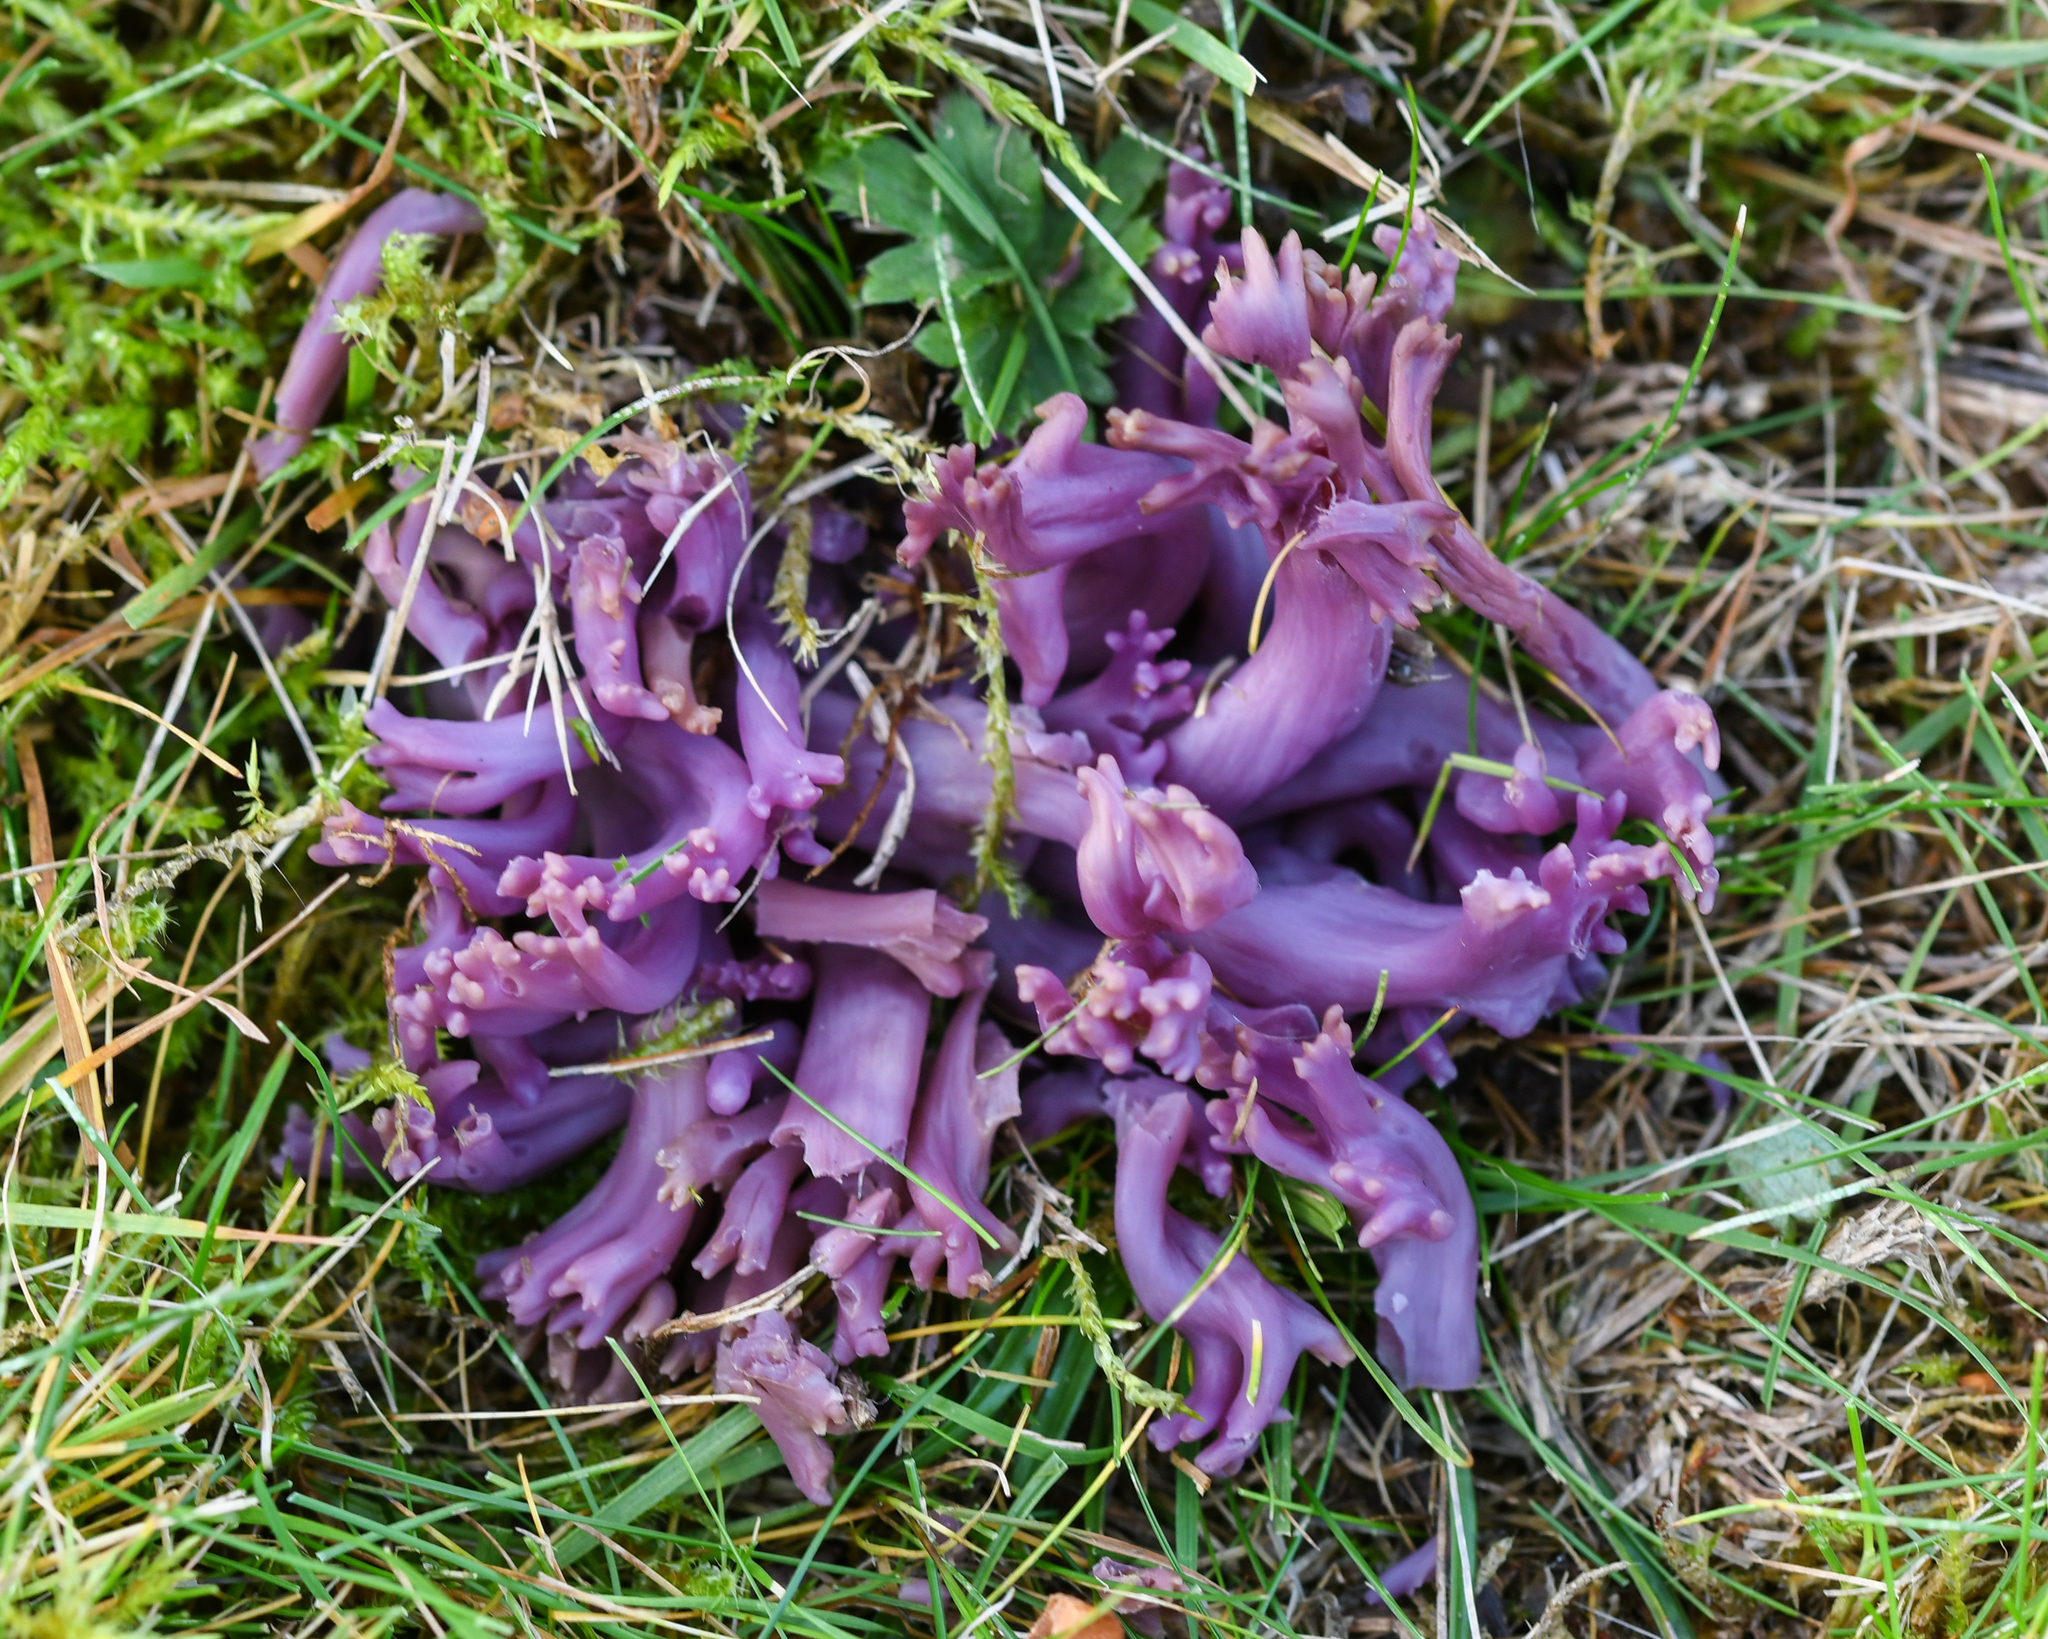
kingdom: Fungi
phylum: Basidiomycota
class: Agaricomycetes
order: Agaricales
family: Clavariaceae
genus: Clavaria
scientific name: Clavaria zollingeri
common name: Violet coral
